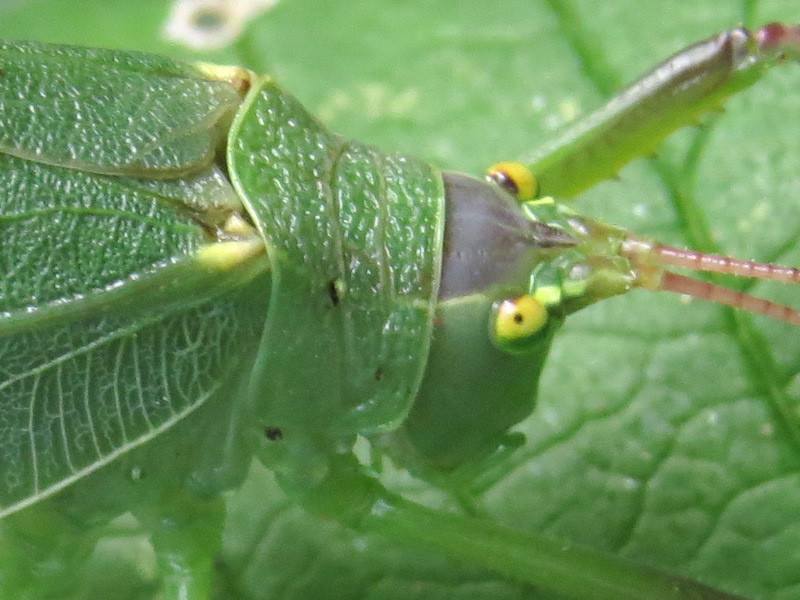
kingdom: Animalia
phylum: Arthropoda
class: Insecta
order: Orthoptera
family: Tettigoniidae
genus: Pterophylla
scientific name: Pterophylla camellifolia
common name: Common true katydid
